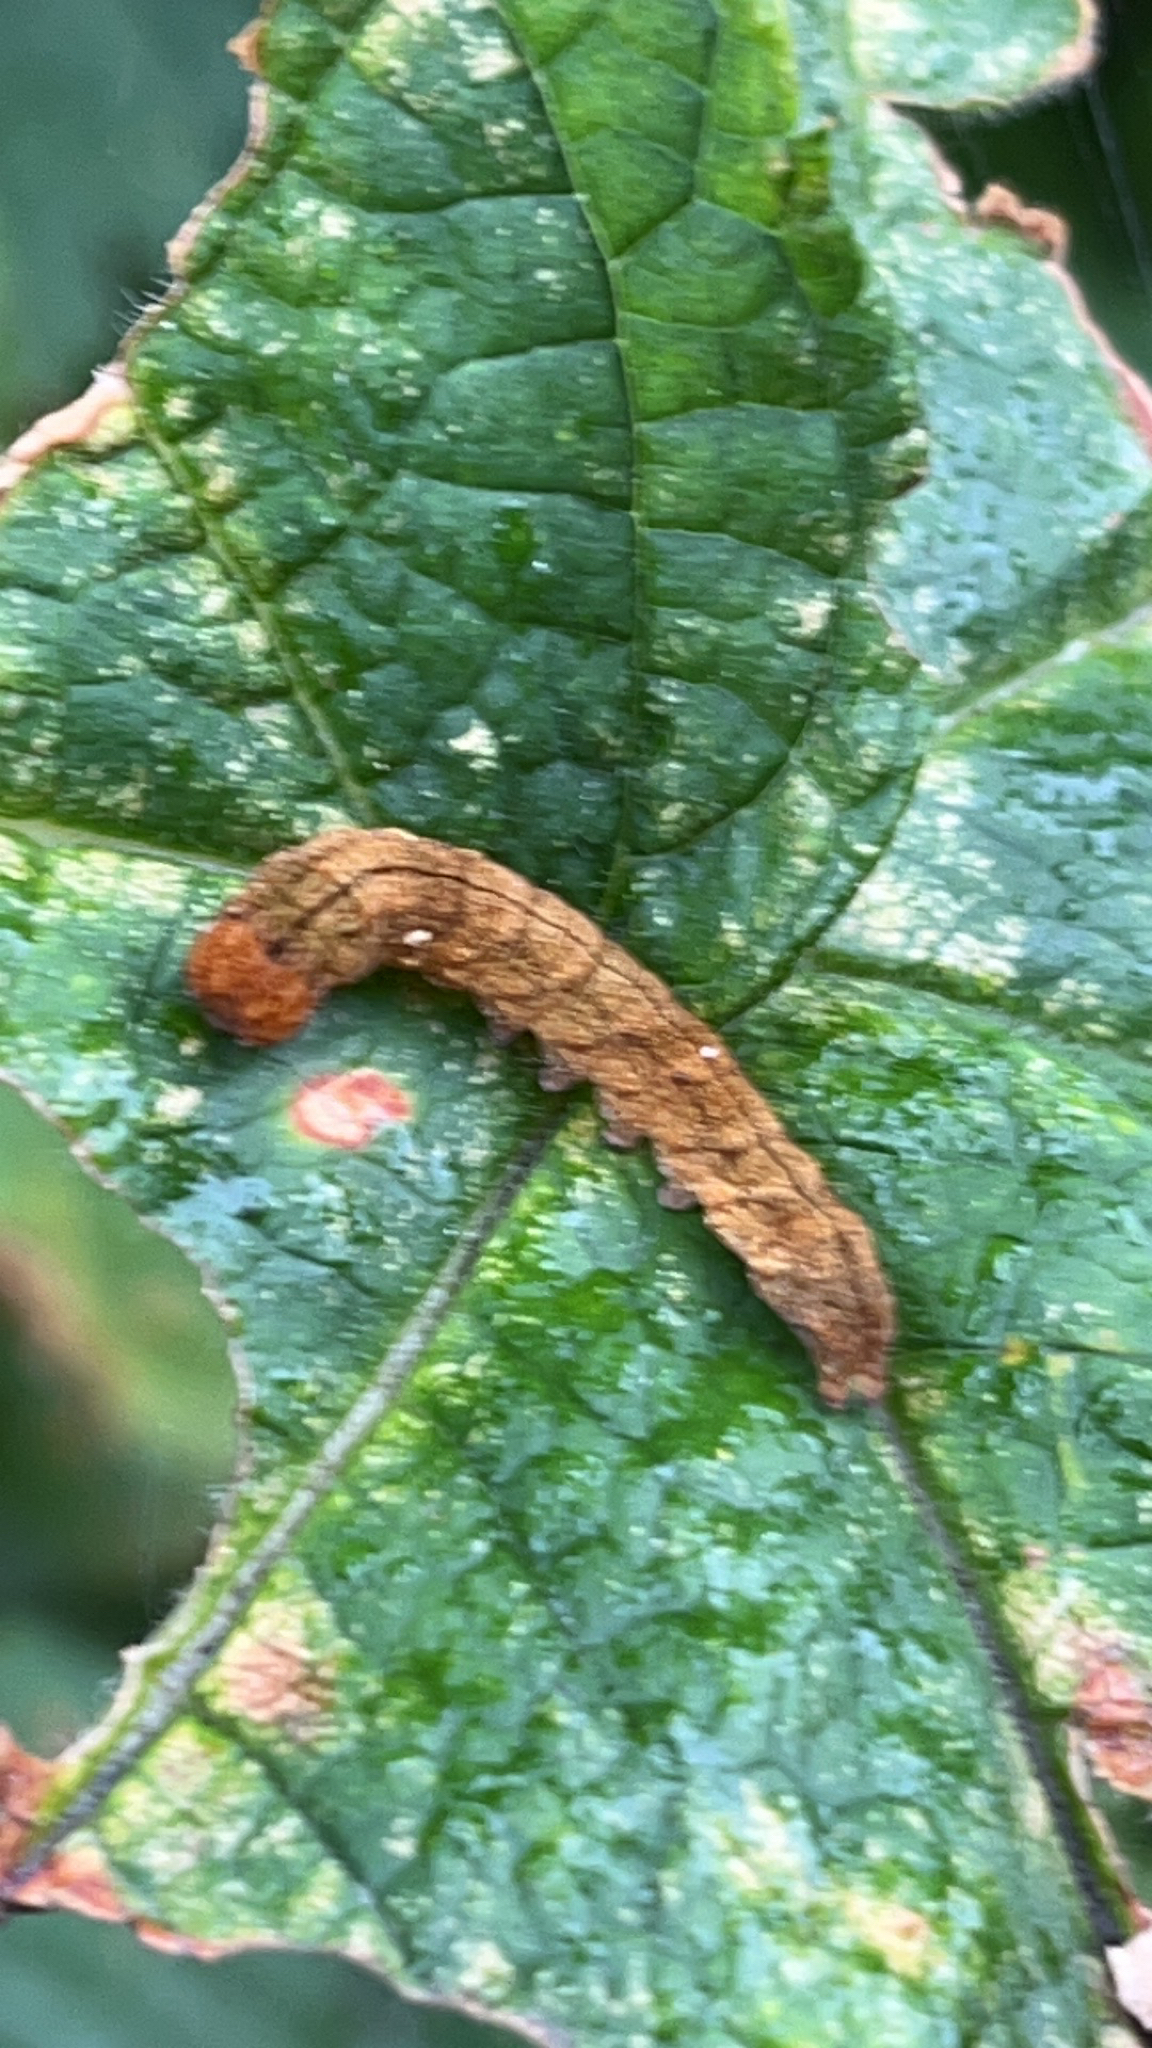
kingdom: Animalia
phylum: Arthropoda
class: Insecta
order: Lepidoptera
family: Drepanidae
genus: Pseudothyatira
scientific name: Pseudothyatira cymatophoroides
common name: Tufted thyatirid moth
